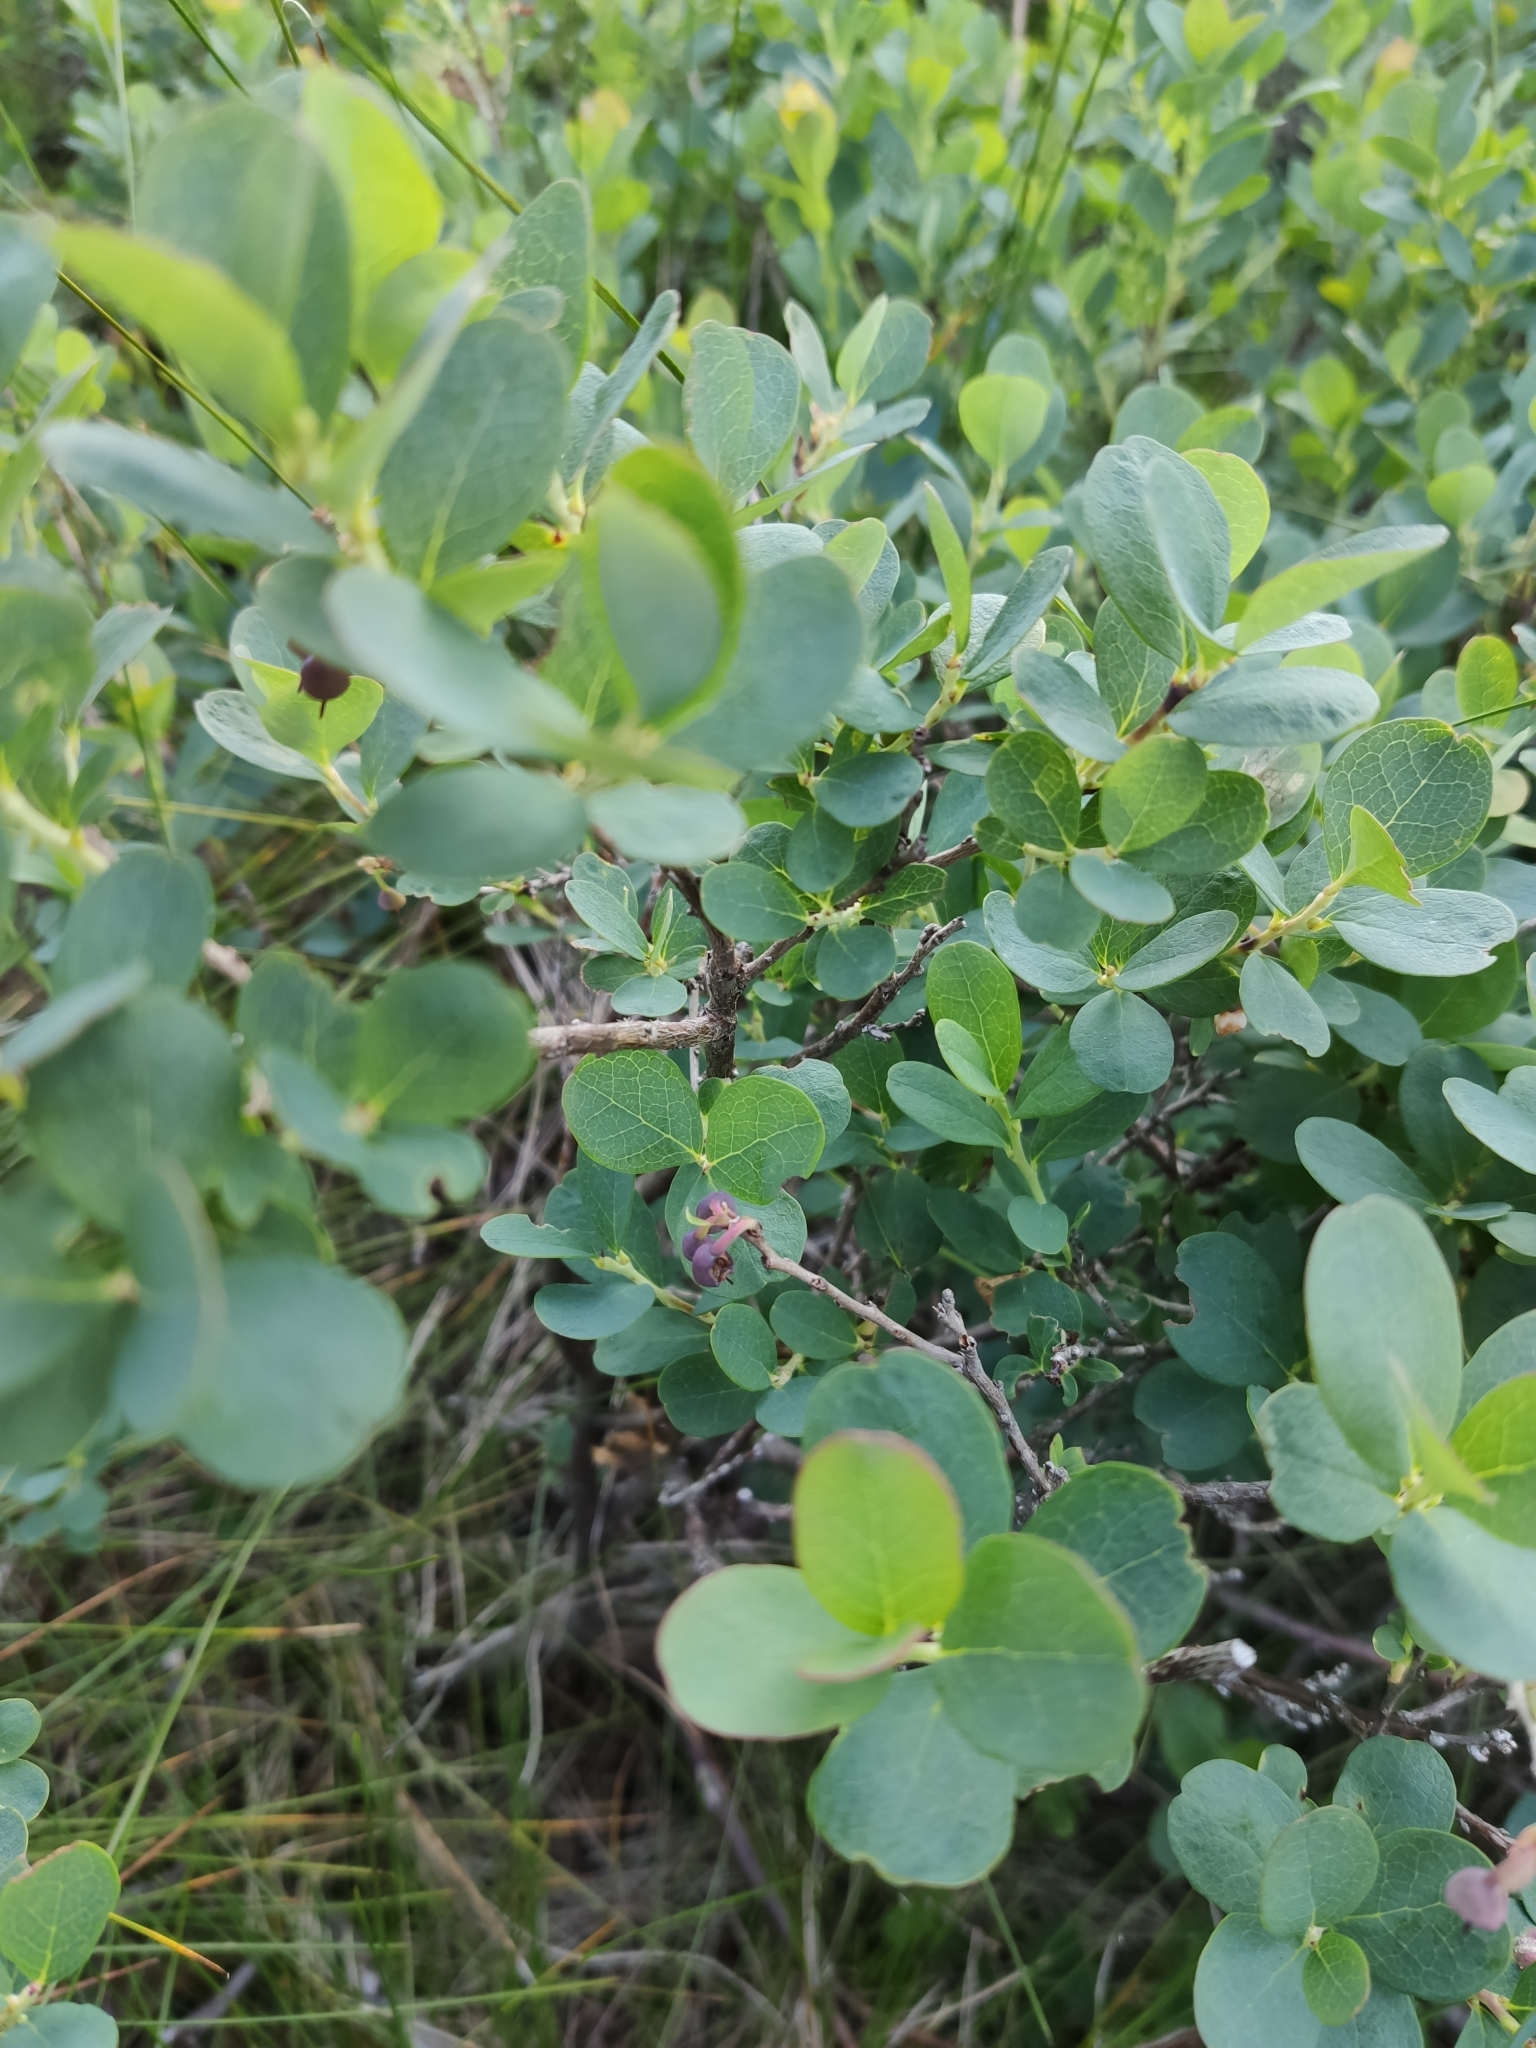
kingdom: Plantae
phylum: Tracheophyta
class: Magnoliopsida
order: Ericales
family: Ericaceae
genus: Vaccinium
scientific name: Vaccinium uliginosum
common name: Bog bilberry
